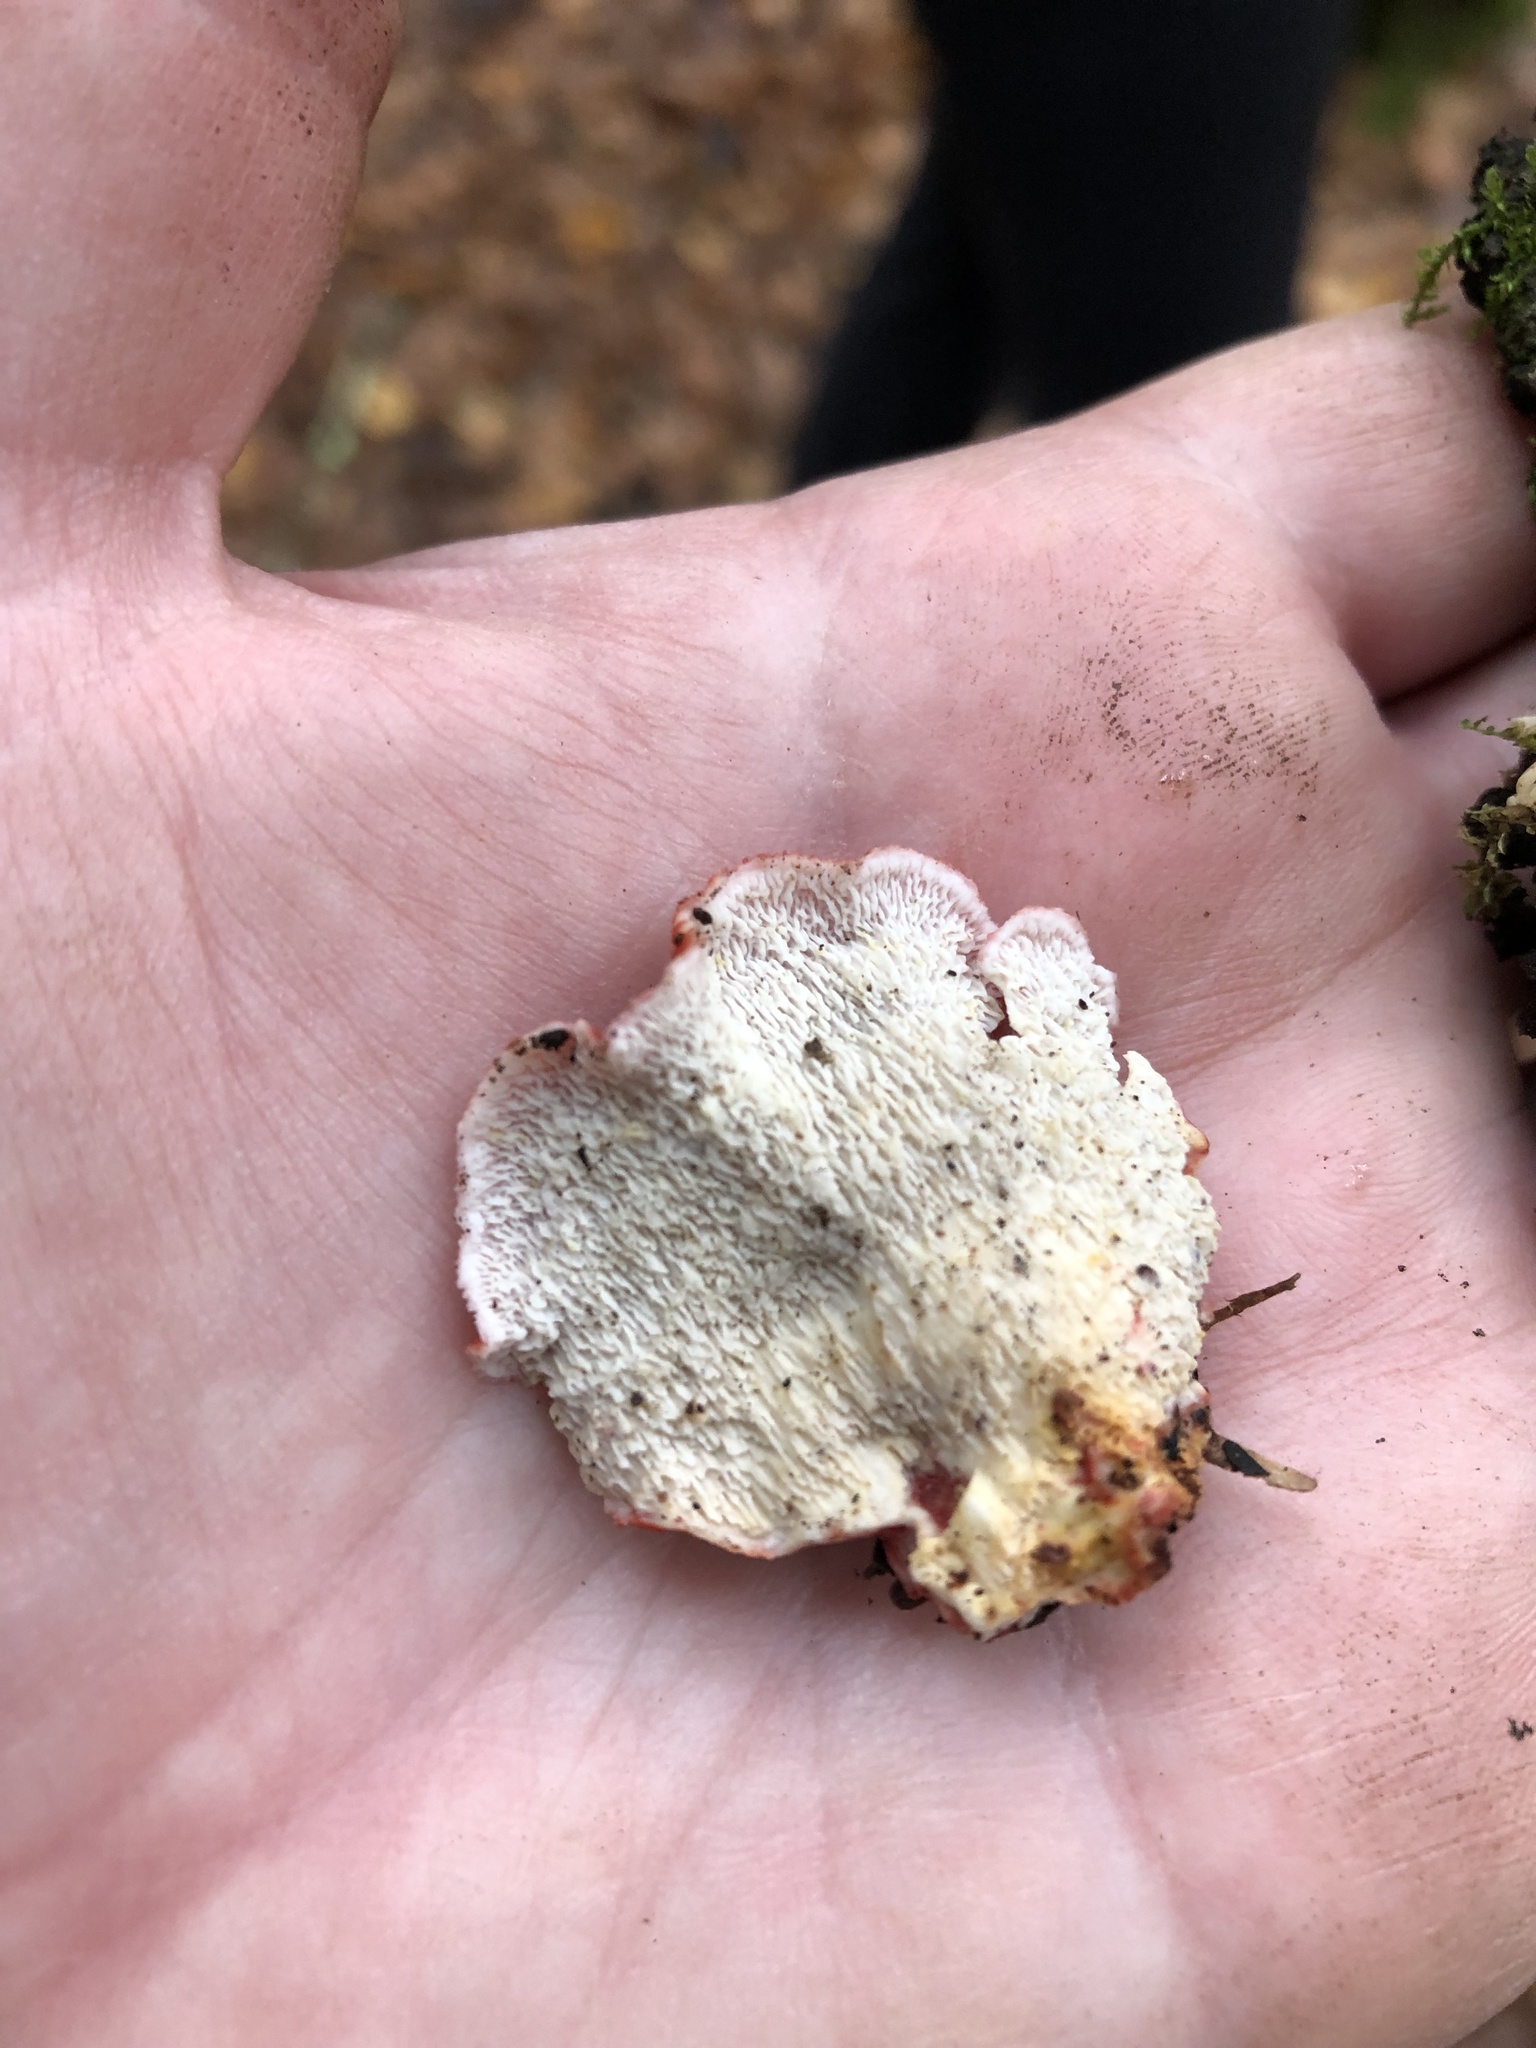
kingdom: Fungi
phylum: Basidiomycota
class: Agaricomycetes
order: Polyporales
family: Irpicaceae
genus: Byssomerulius
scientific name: Byssomerulius incarnatus
